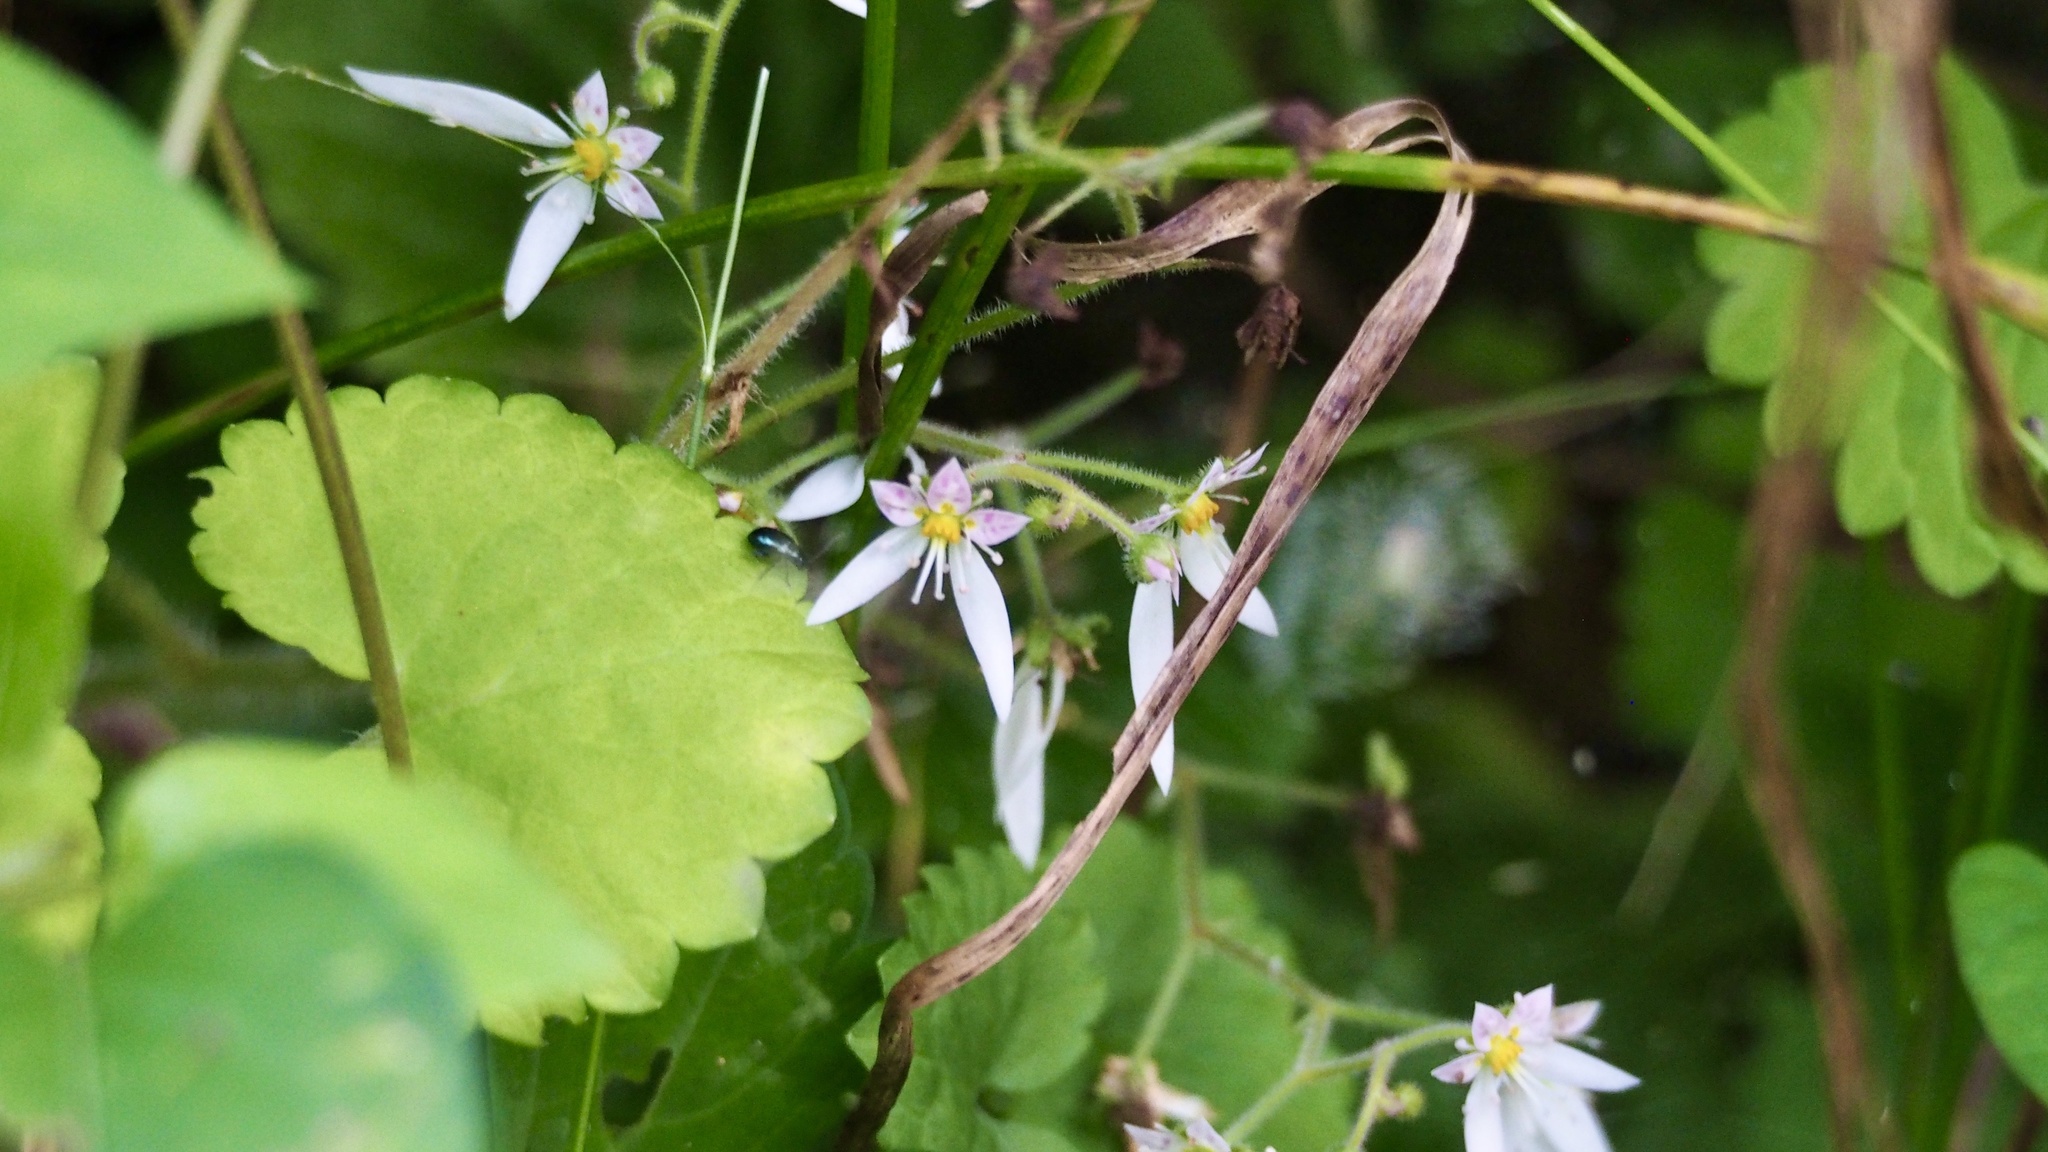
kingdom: Plantae
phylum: Tracheophyta
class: Magnoliopsida
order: Saxifragales
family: Saxifragaceae
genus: Saxifraga
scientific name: Saxifraga stolonifera
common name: Creeping saxifrage
